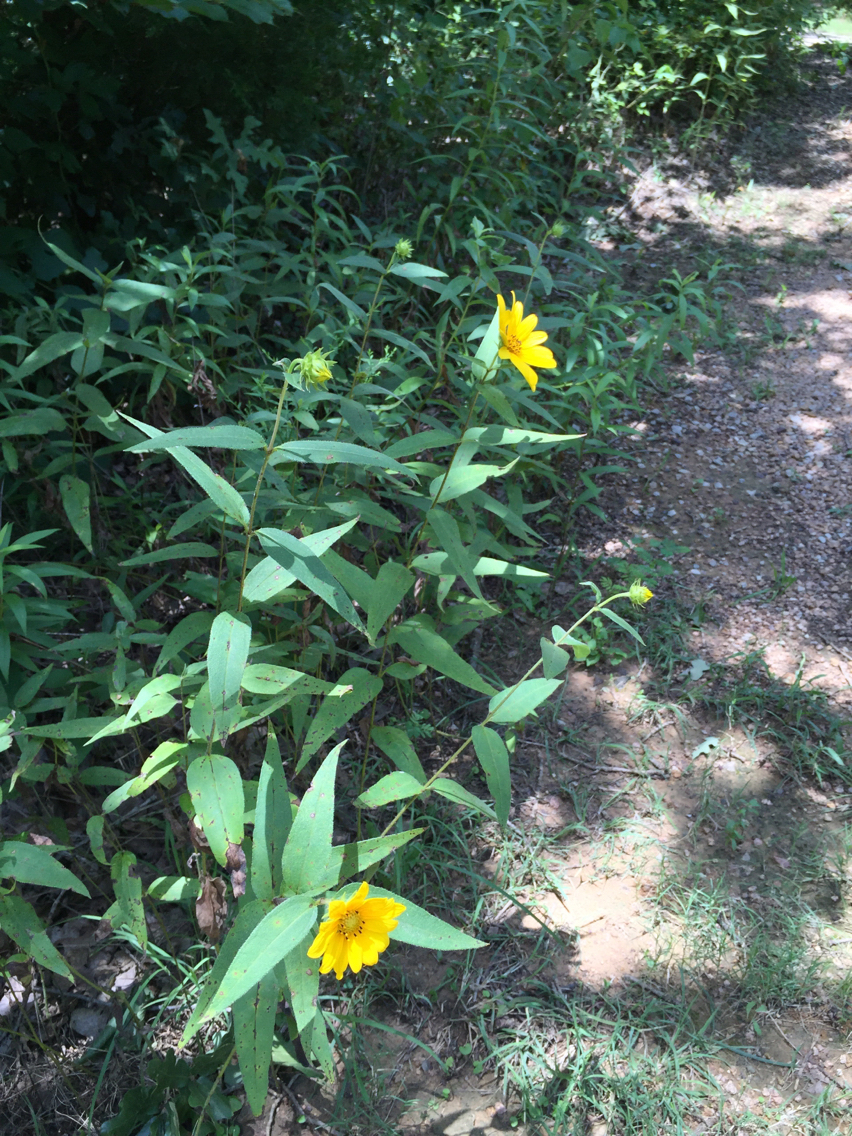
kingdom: Plantae
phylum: Tracheophyta
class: Magnoliopsida
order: Asterales
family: Asteraceae
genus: Helianthus
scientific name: Helianthus hirsutus
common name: Hairy sunflower
